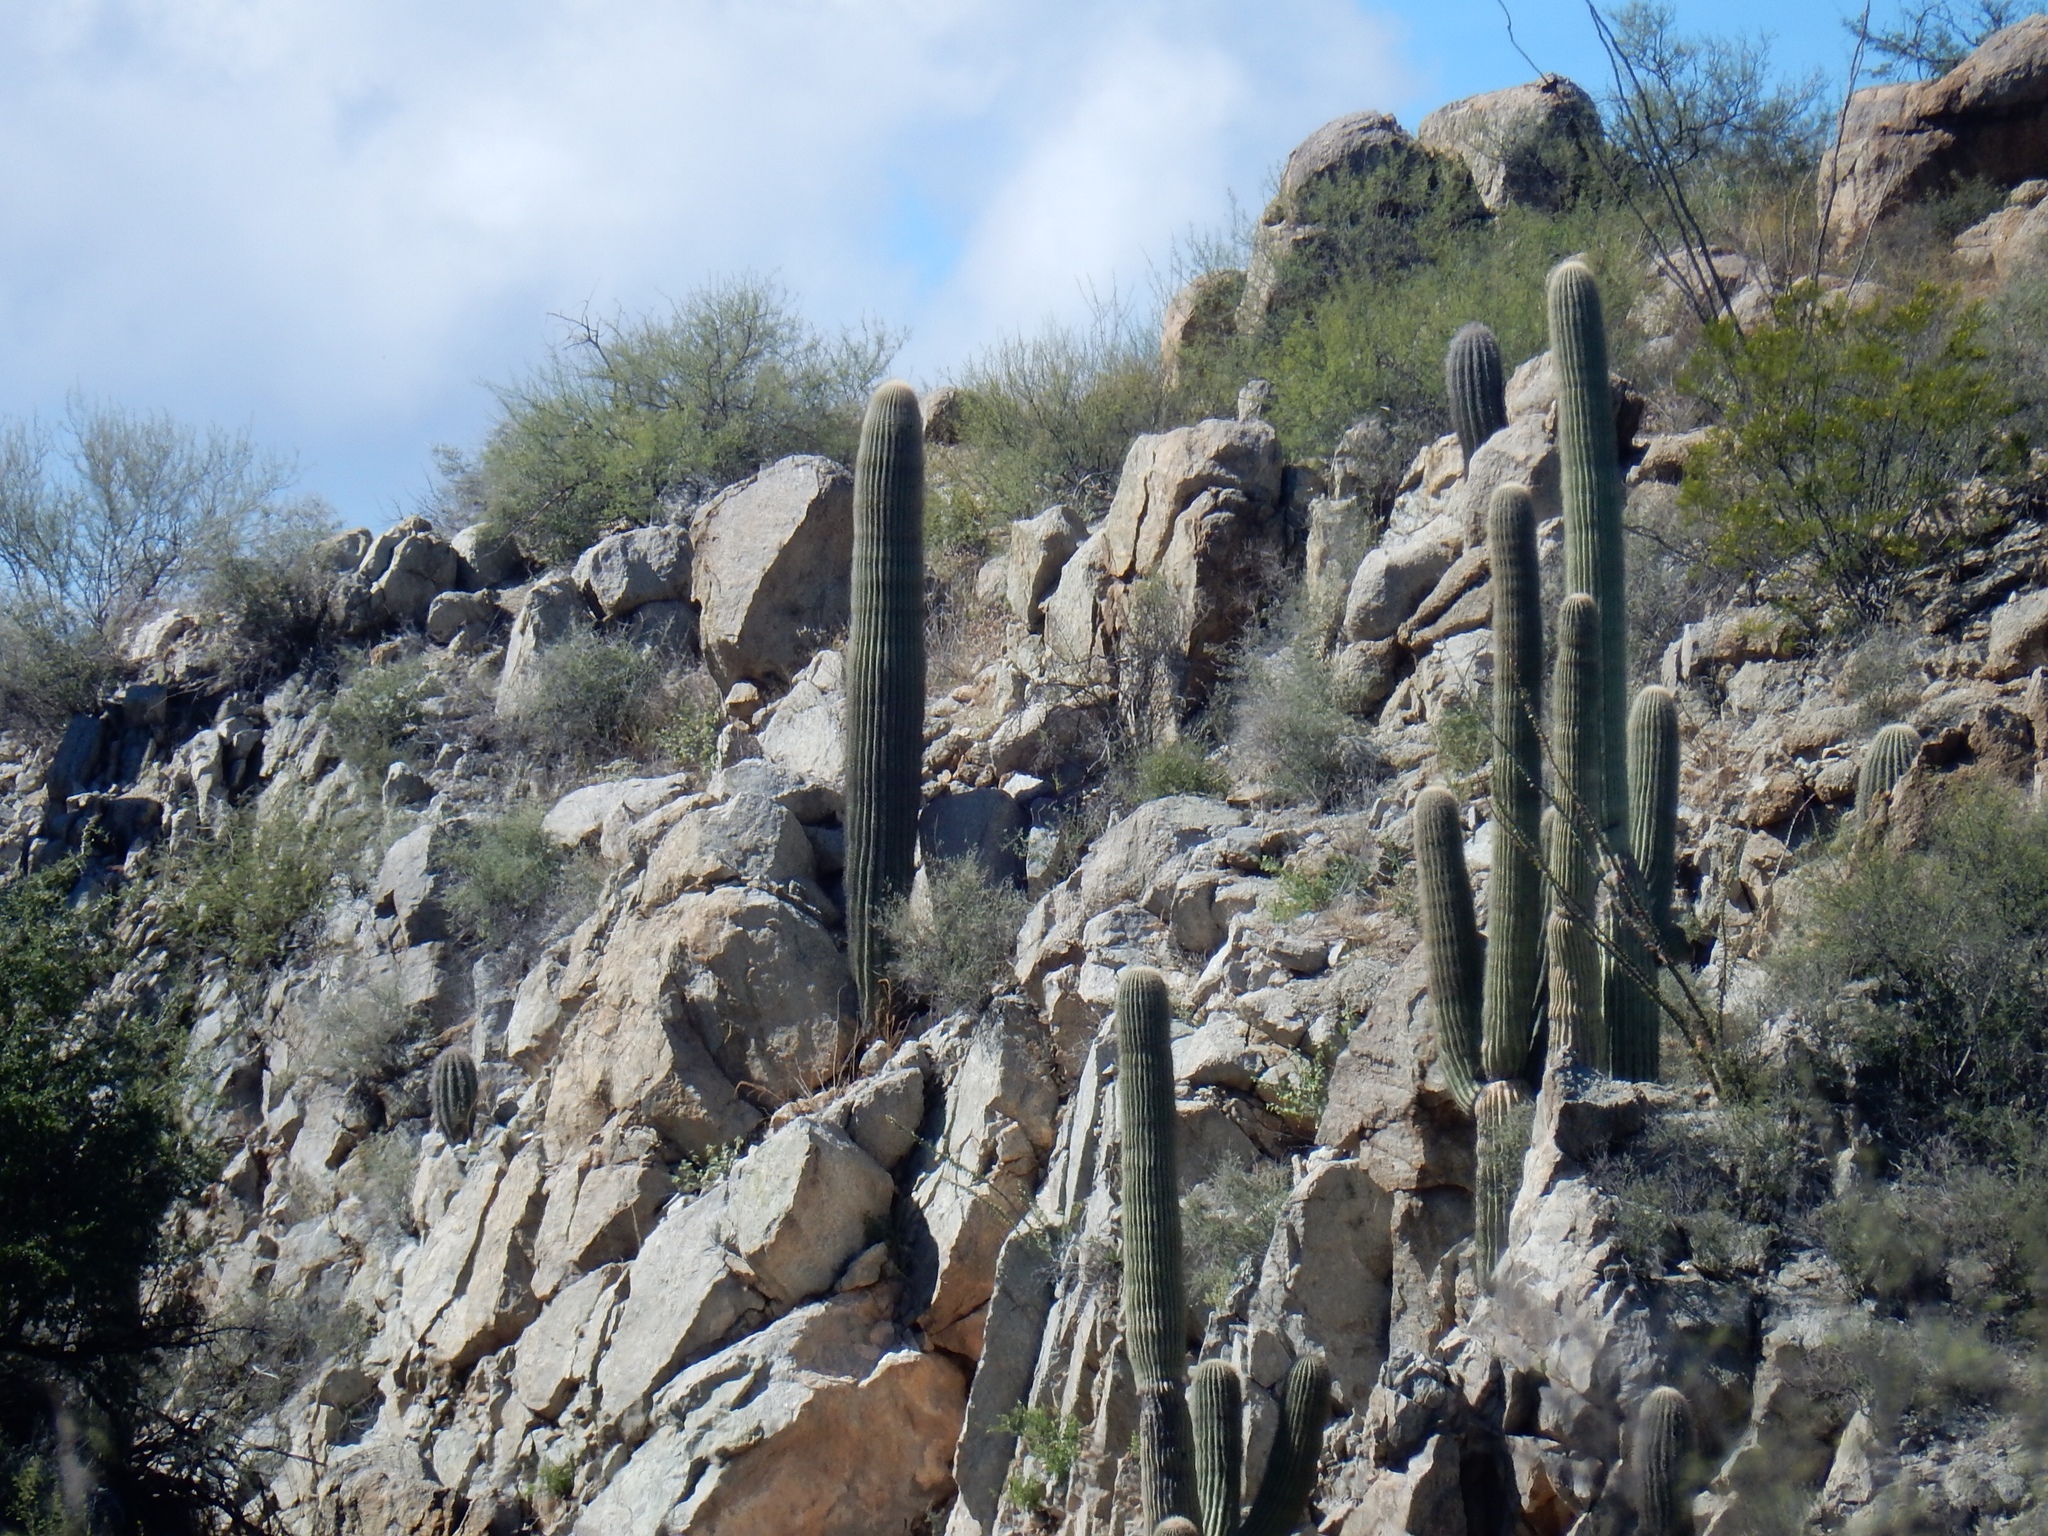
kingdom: Plantae
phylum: Tracheophyta
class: Magnoliopsida
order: Caryophyllales
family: Cactaceae
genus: Carnegiea
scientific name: Carnegiea gigantea
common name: Saguaro
